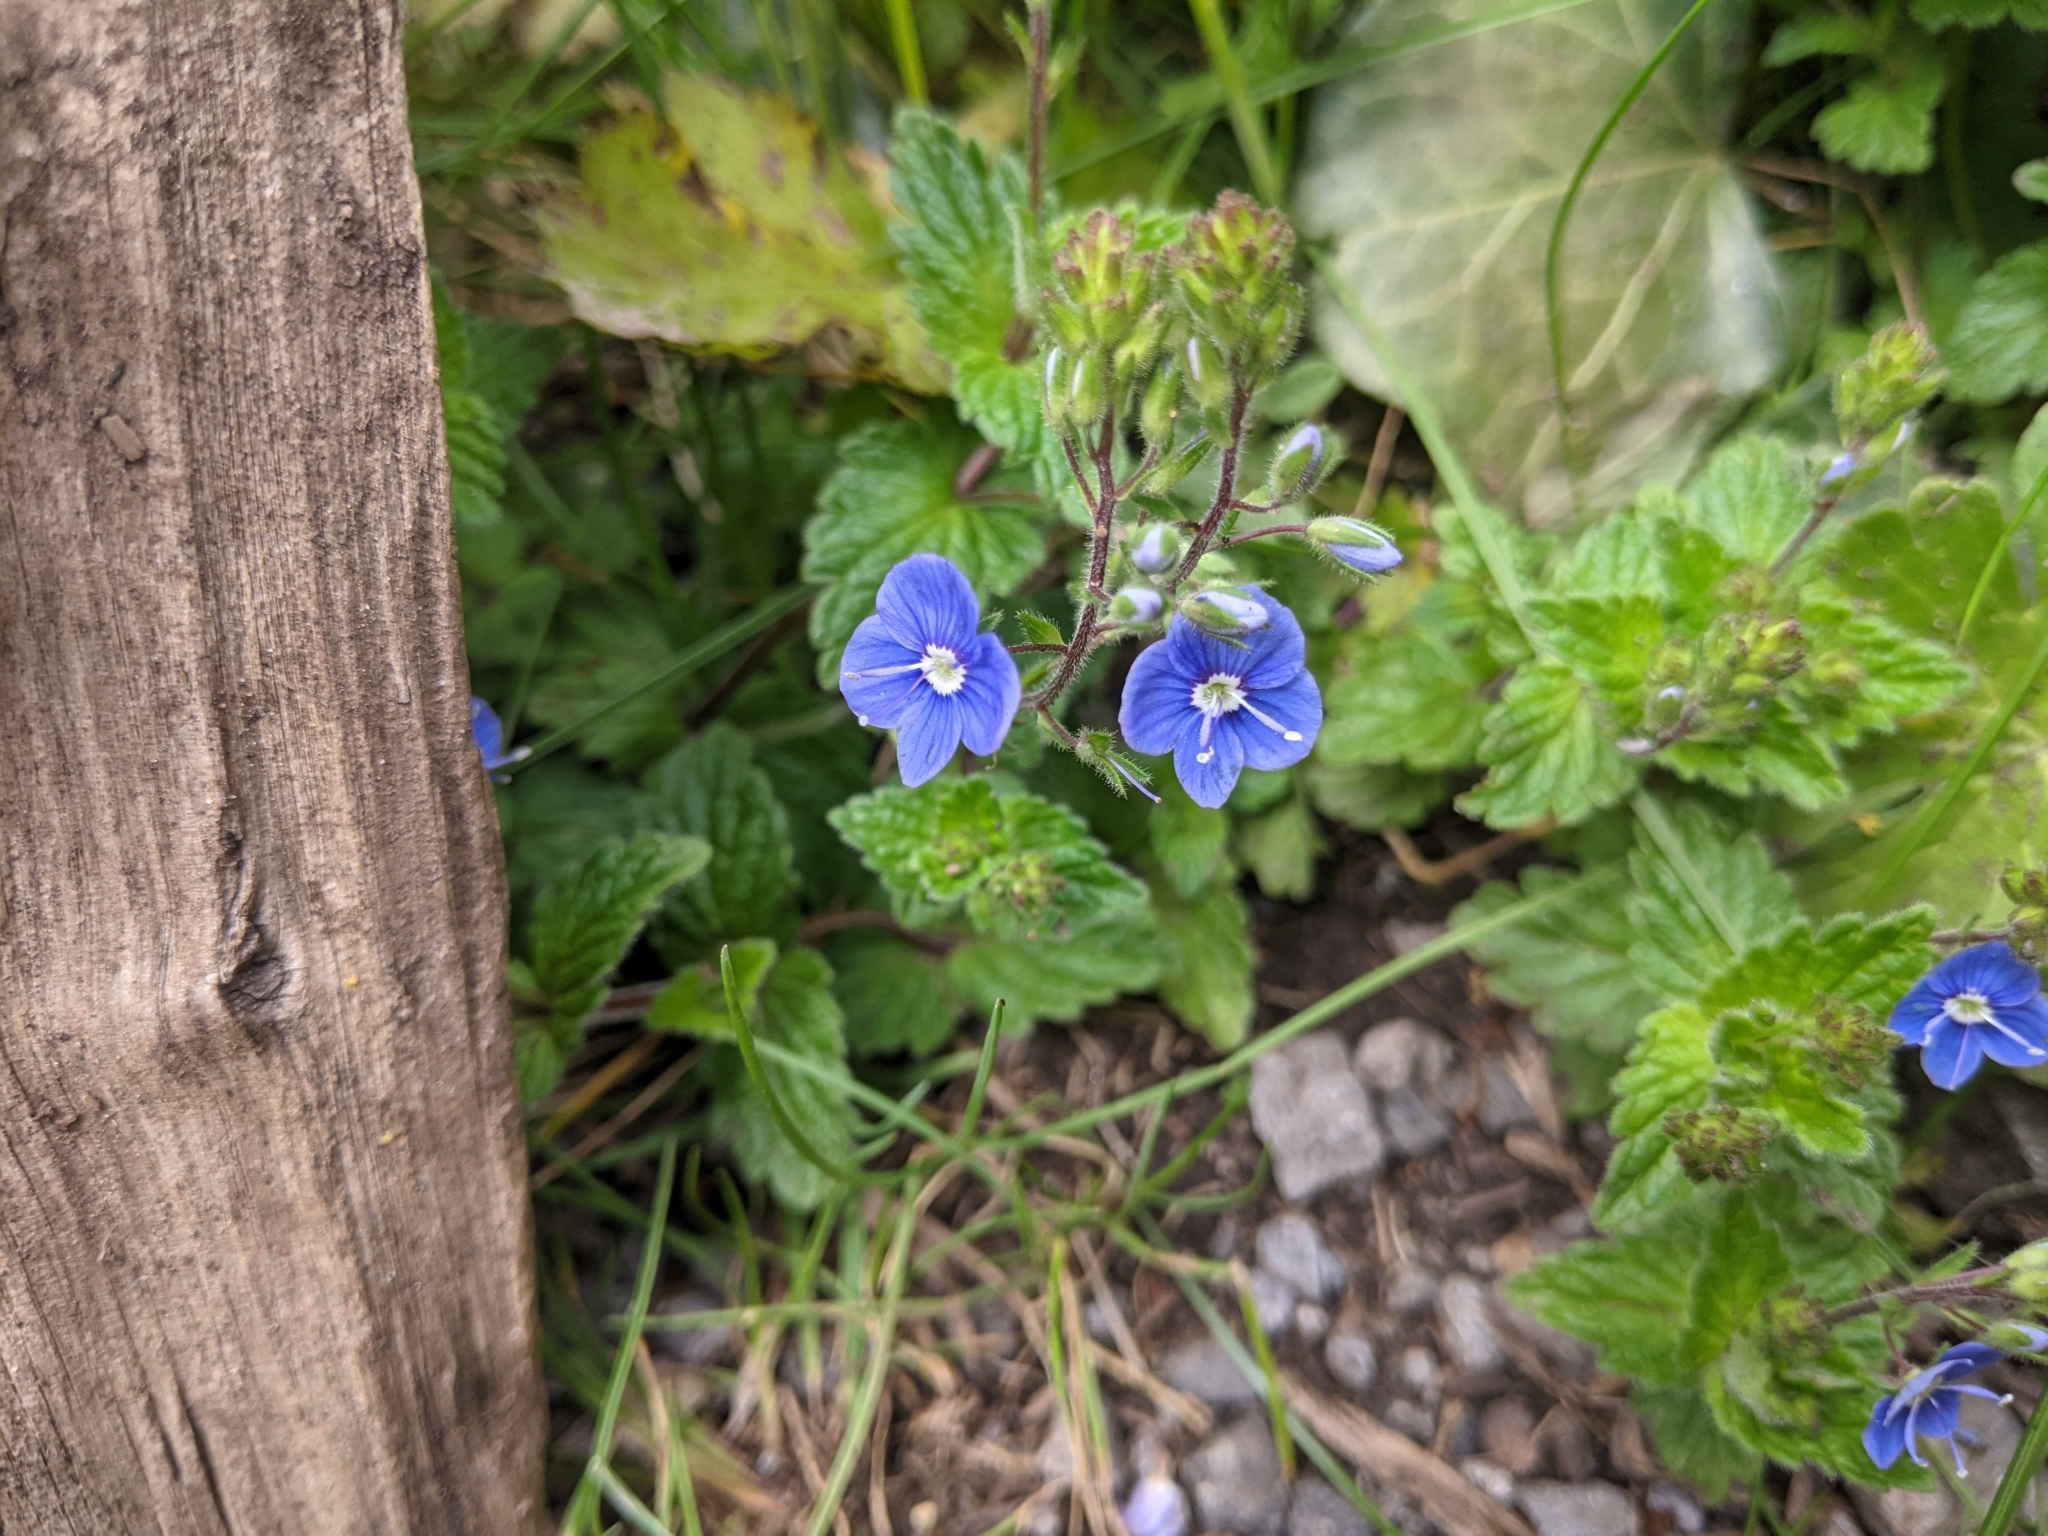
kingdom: Plantae
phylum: Tracheophyta
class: Magnoliopsida
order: Lamiales
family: Plantaginaceae
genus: Veronica
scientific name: Veronica chamaedrys
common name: Germander speedwell
